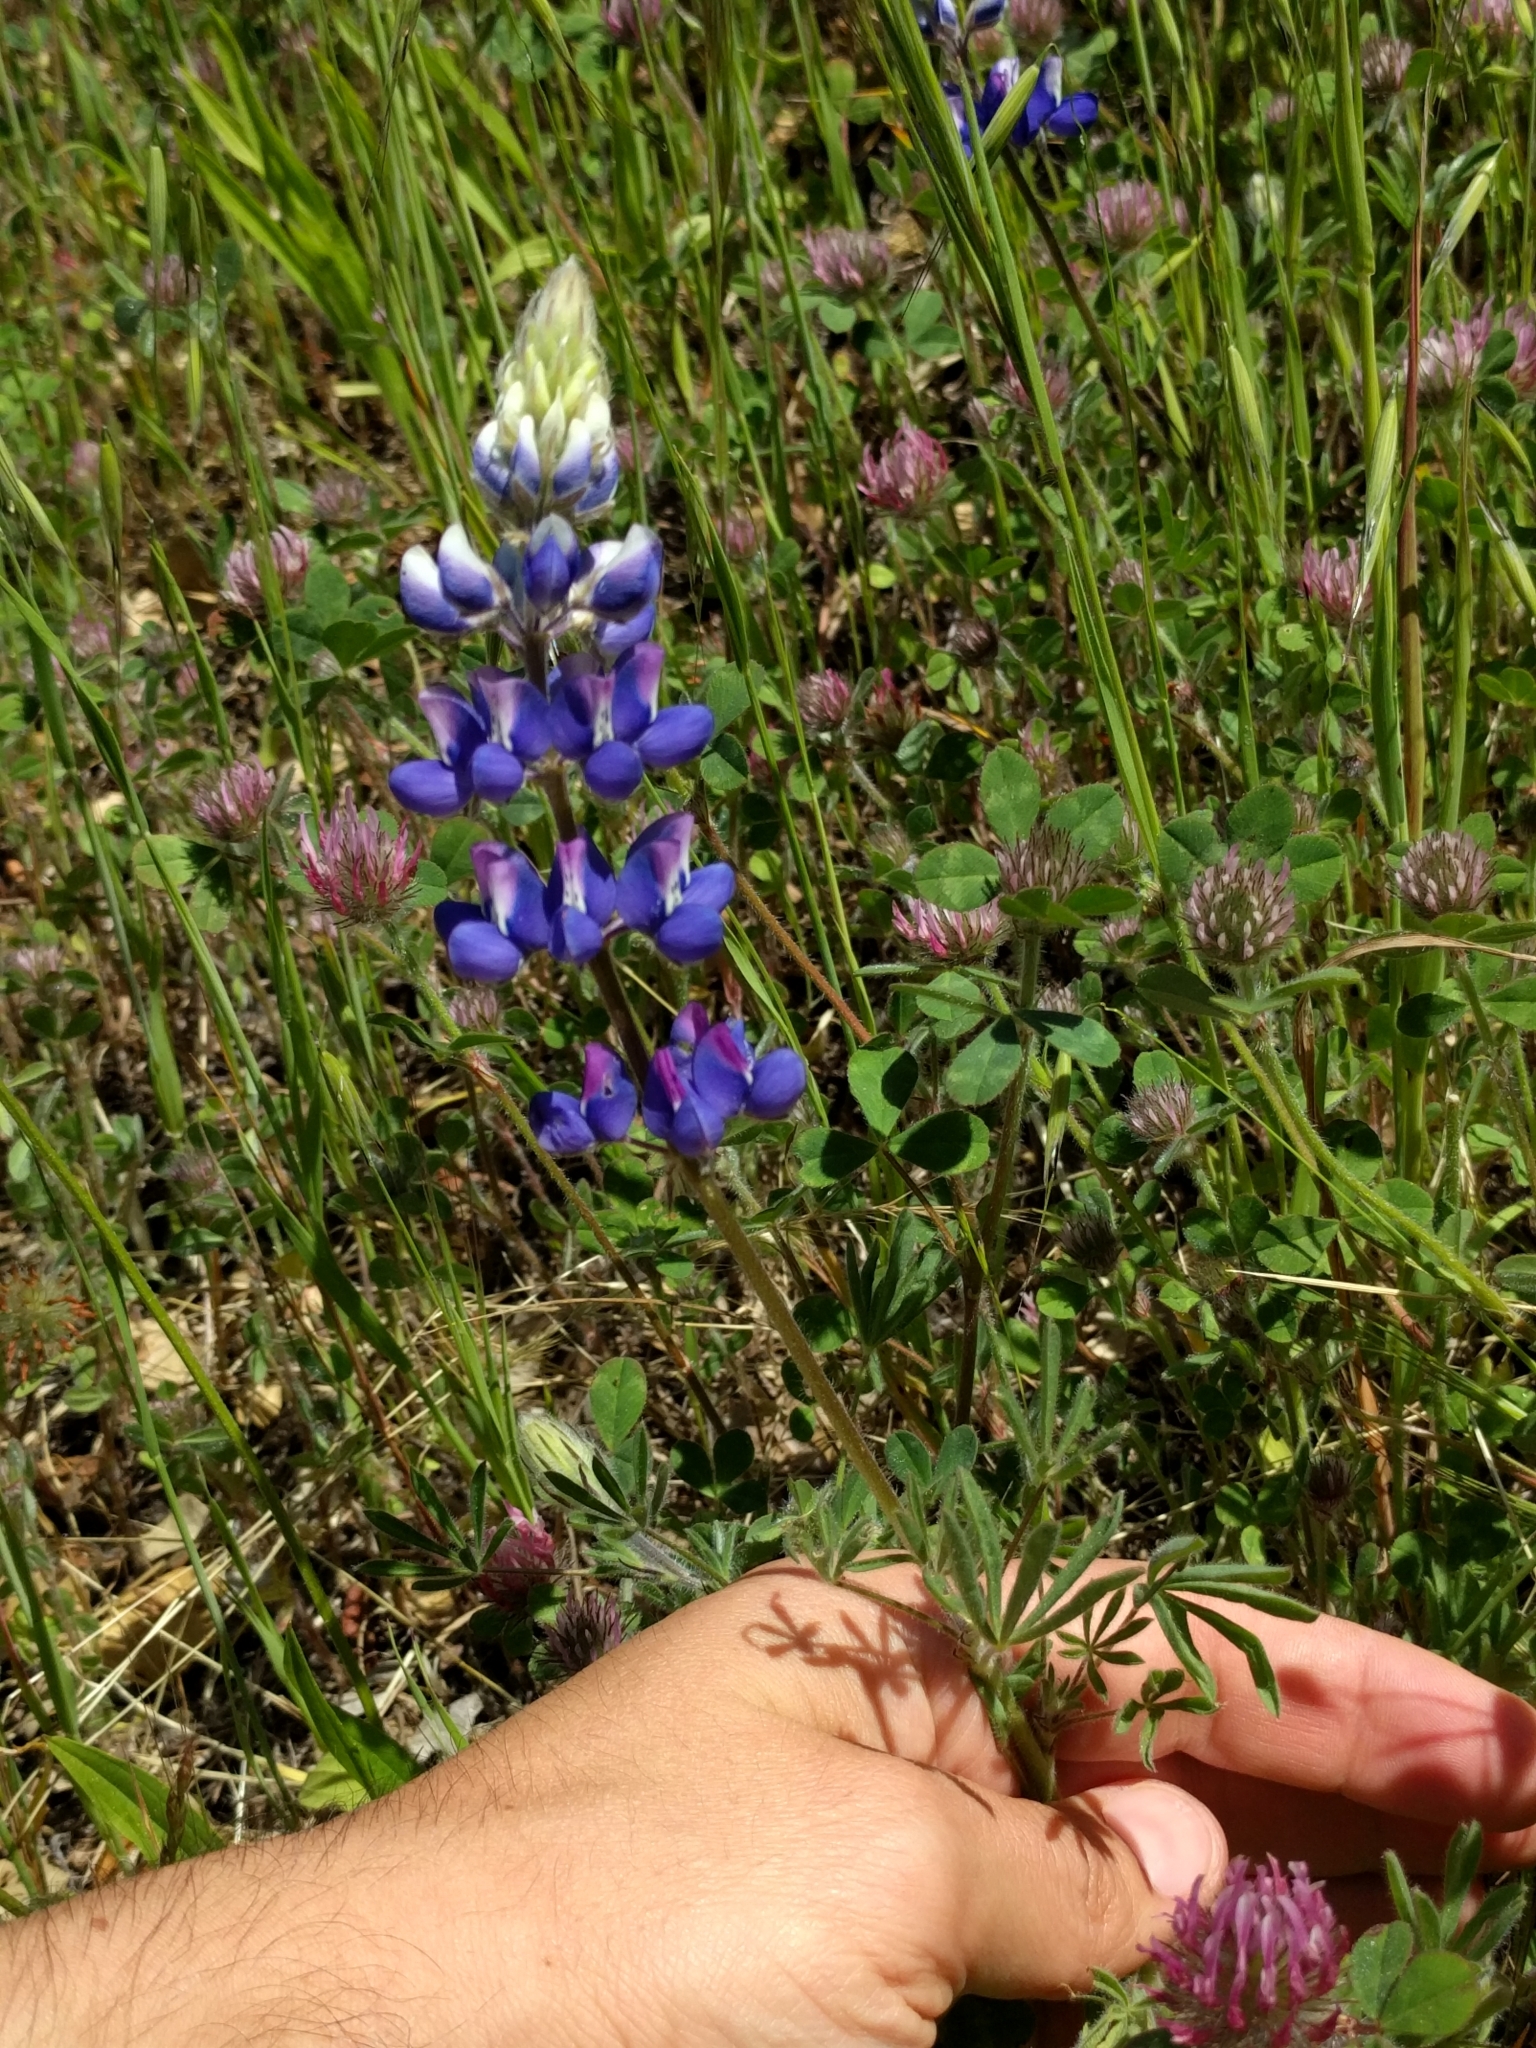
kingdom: Plantae
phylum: Tracheophyta
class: Magnoliopsida
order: Fabales
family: Fabaceae
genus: Lupinus
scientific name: Lupinus nanus
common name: Orean blue lupin
